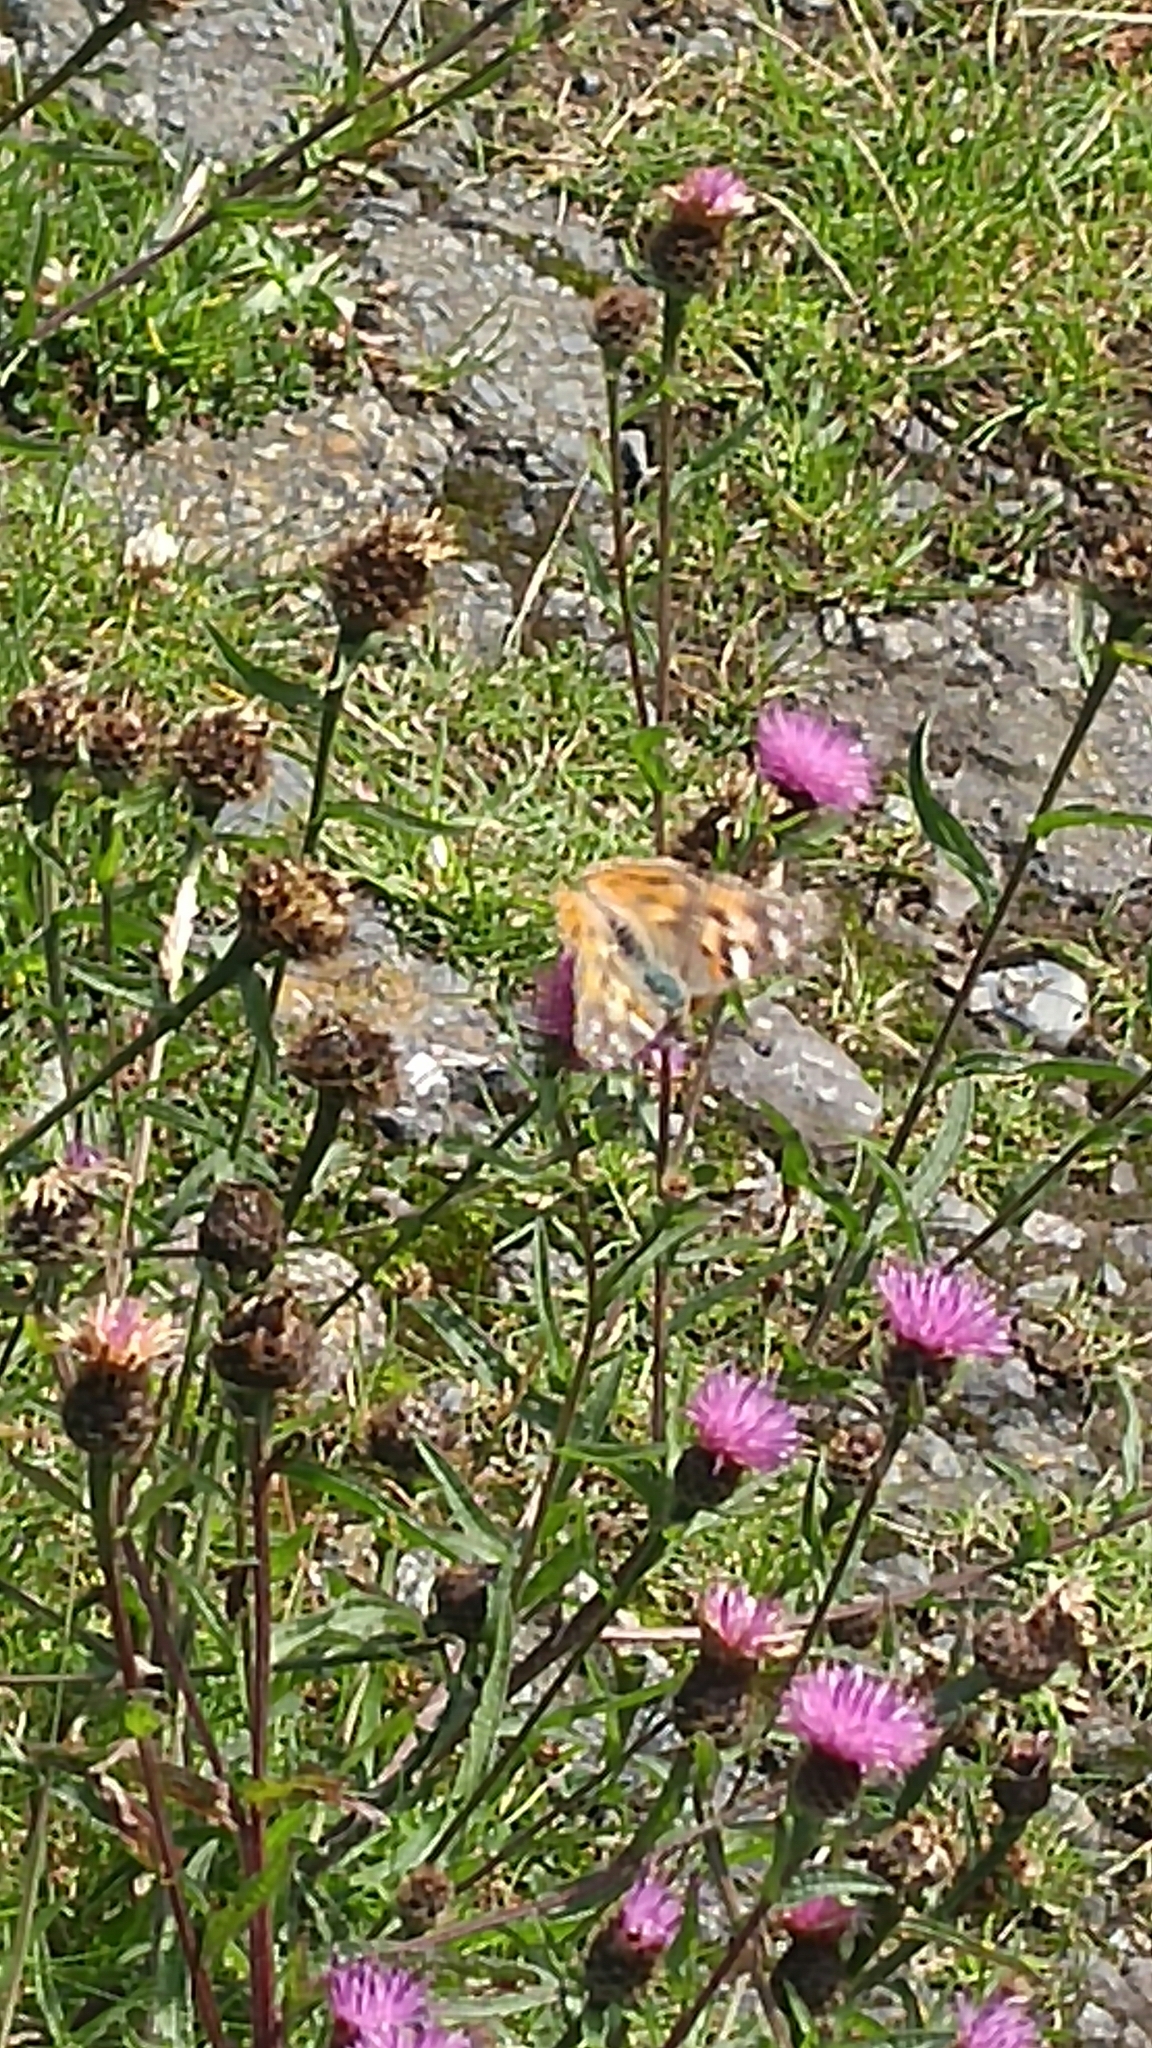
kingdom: Animalia
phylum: Arthropoda
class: Insecta
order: Lepidoptera
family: Nymphalidae
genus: Vanessa
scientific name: Vanessa cardui
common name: Painted lady
